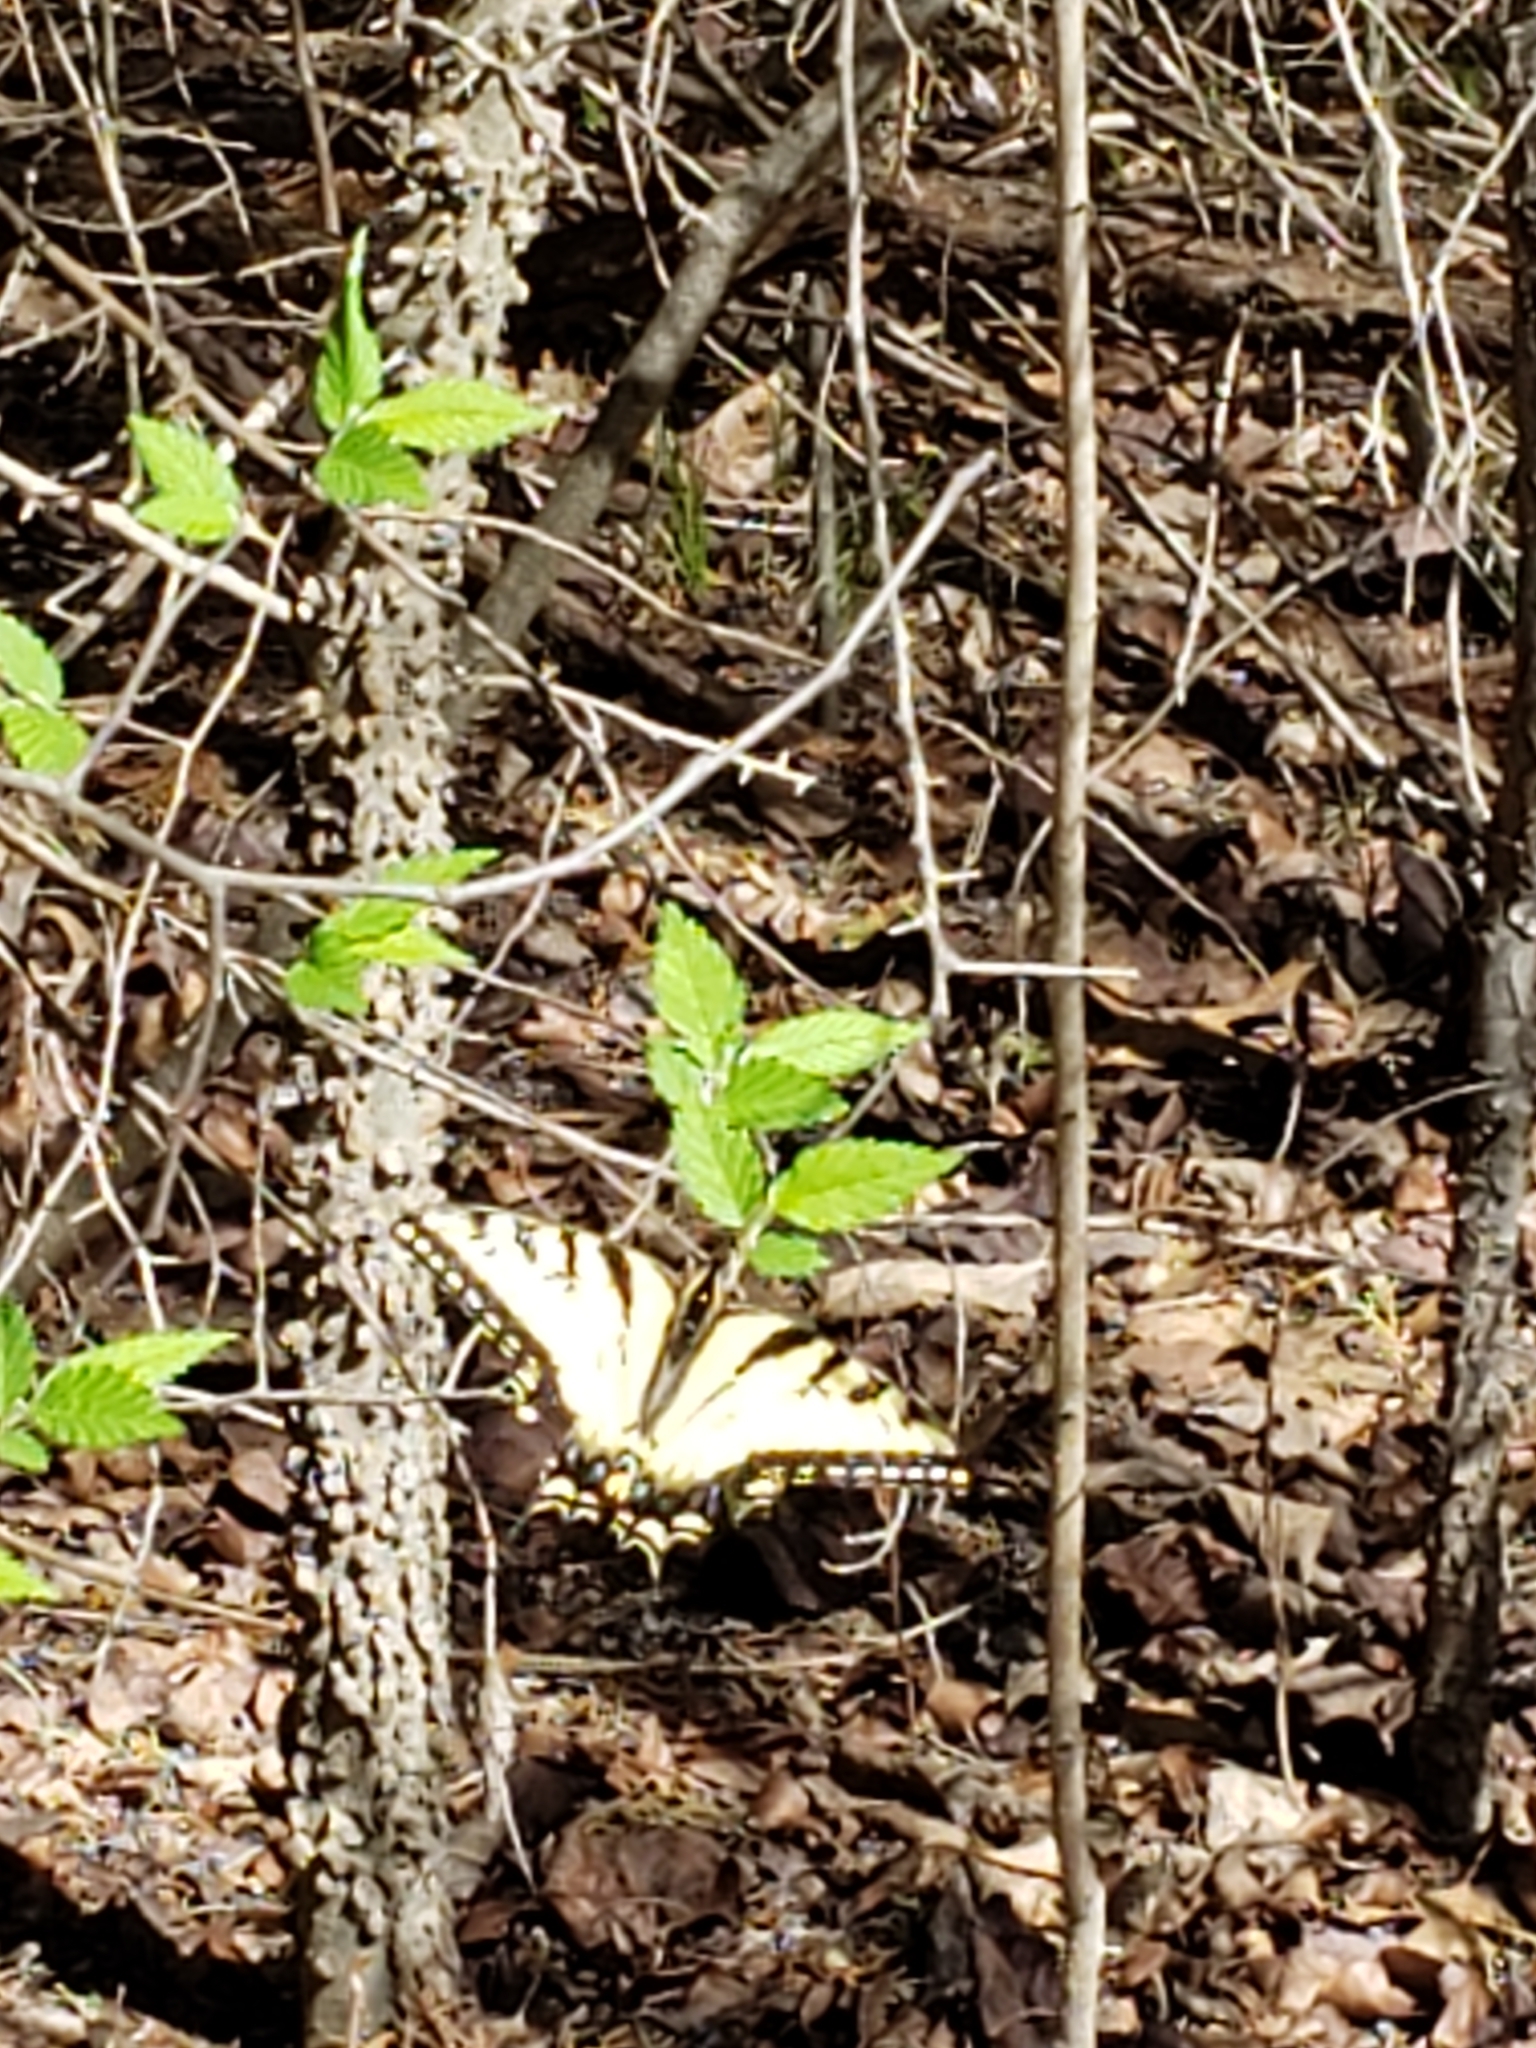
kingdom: Animalia
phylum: Arthropoda
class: Insecta
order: Lepidoptera
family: Papilionidae
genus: Papilio
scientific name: Papilio glaucus
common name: Tiger swallowtail
